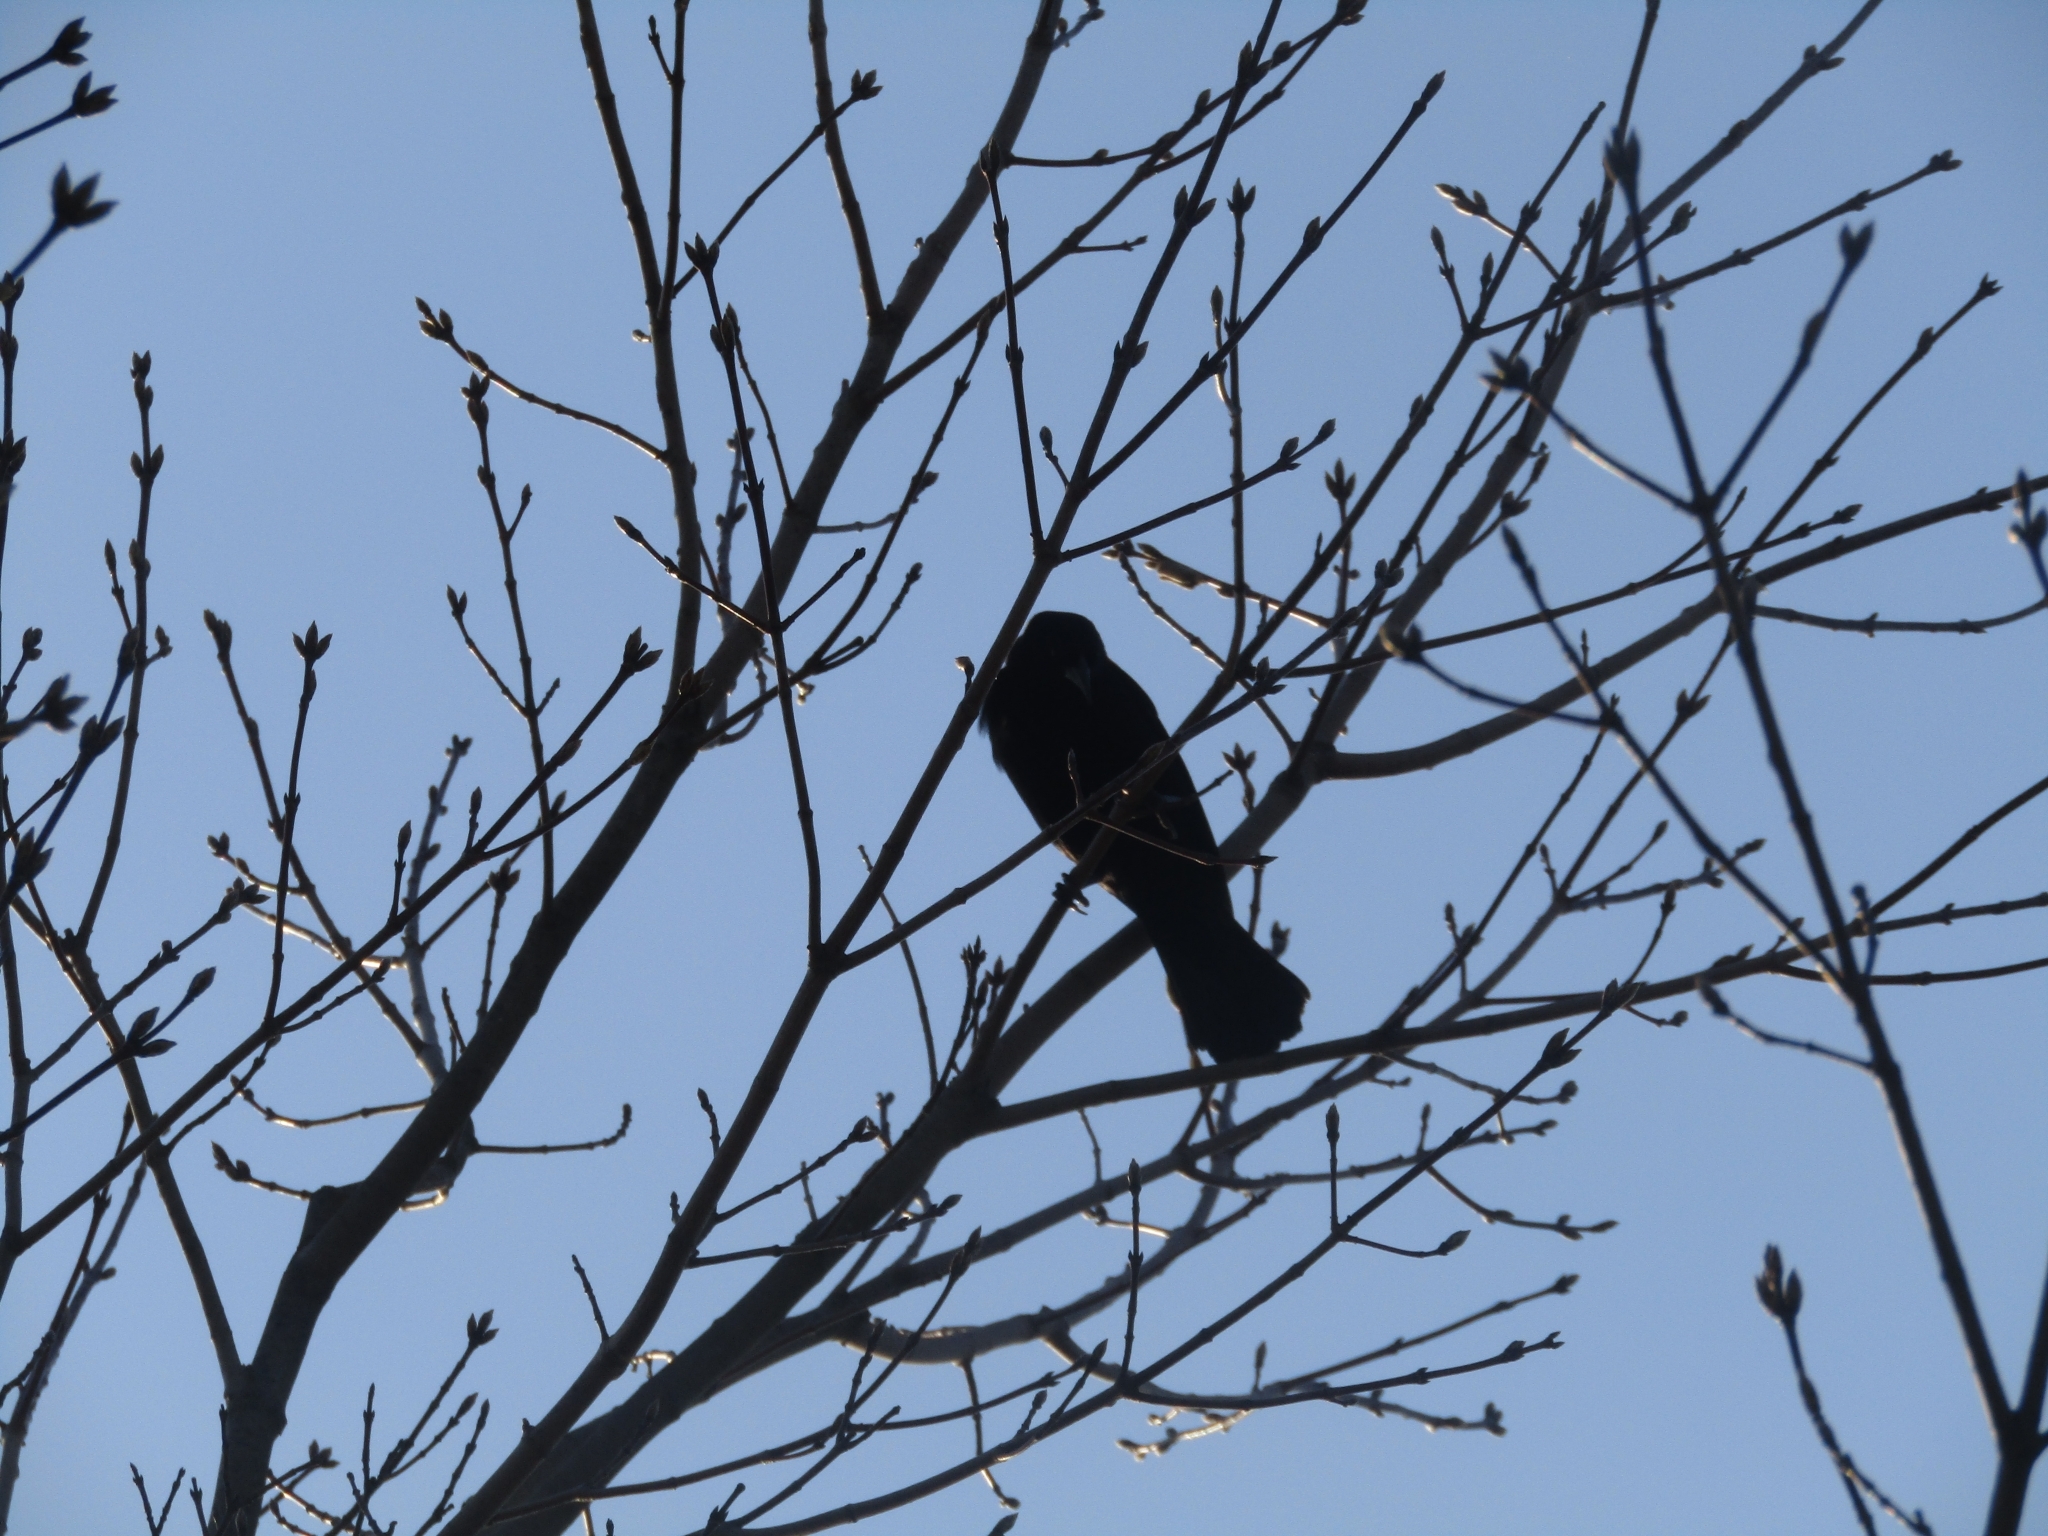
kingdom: Animalia
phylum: Chordata
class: Aves
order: Passeriformes
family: Icteridae
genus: Agelaius
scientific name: Agelaius phoeniceus
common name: Red-winged blackbird
